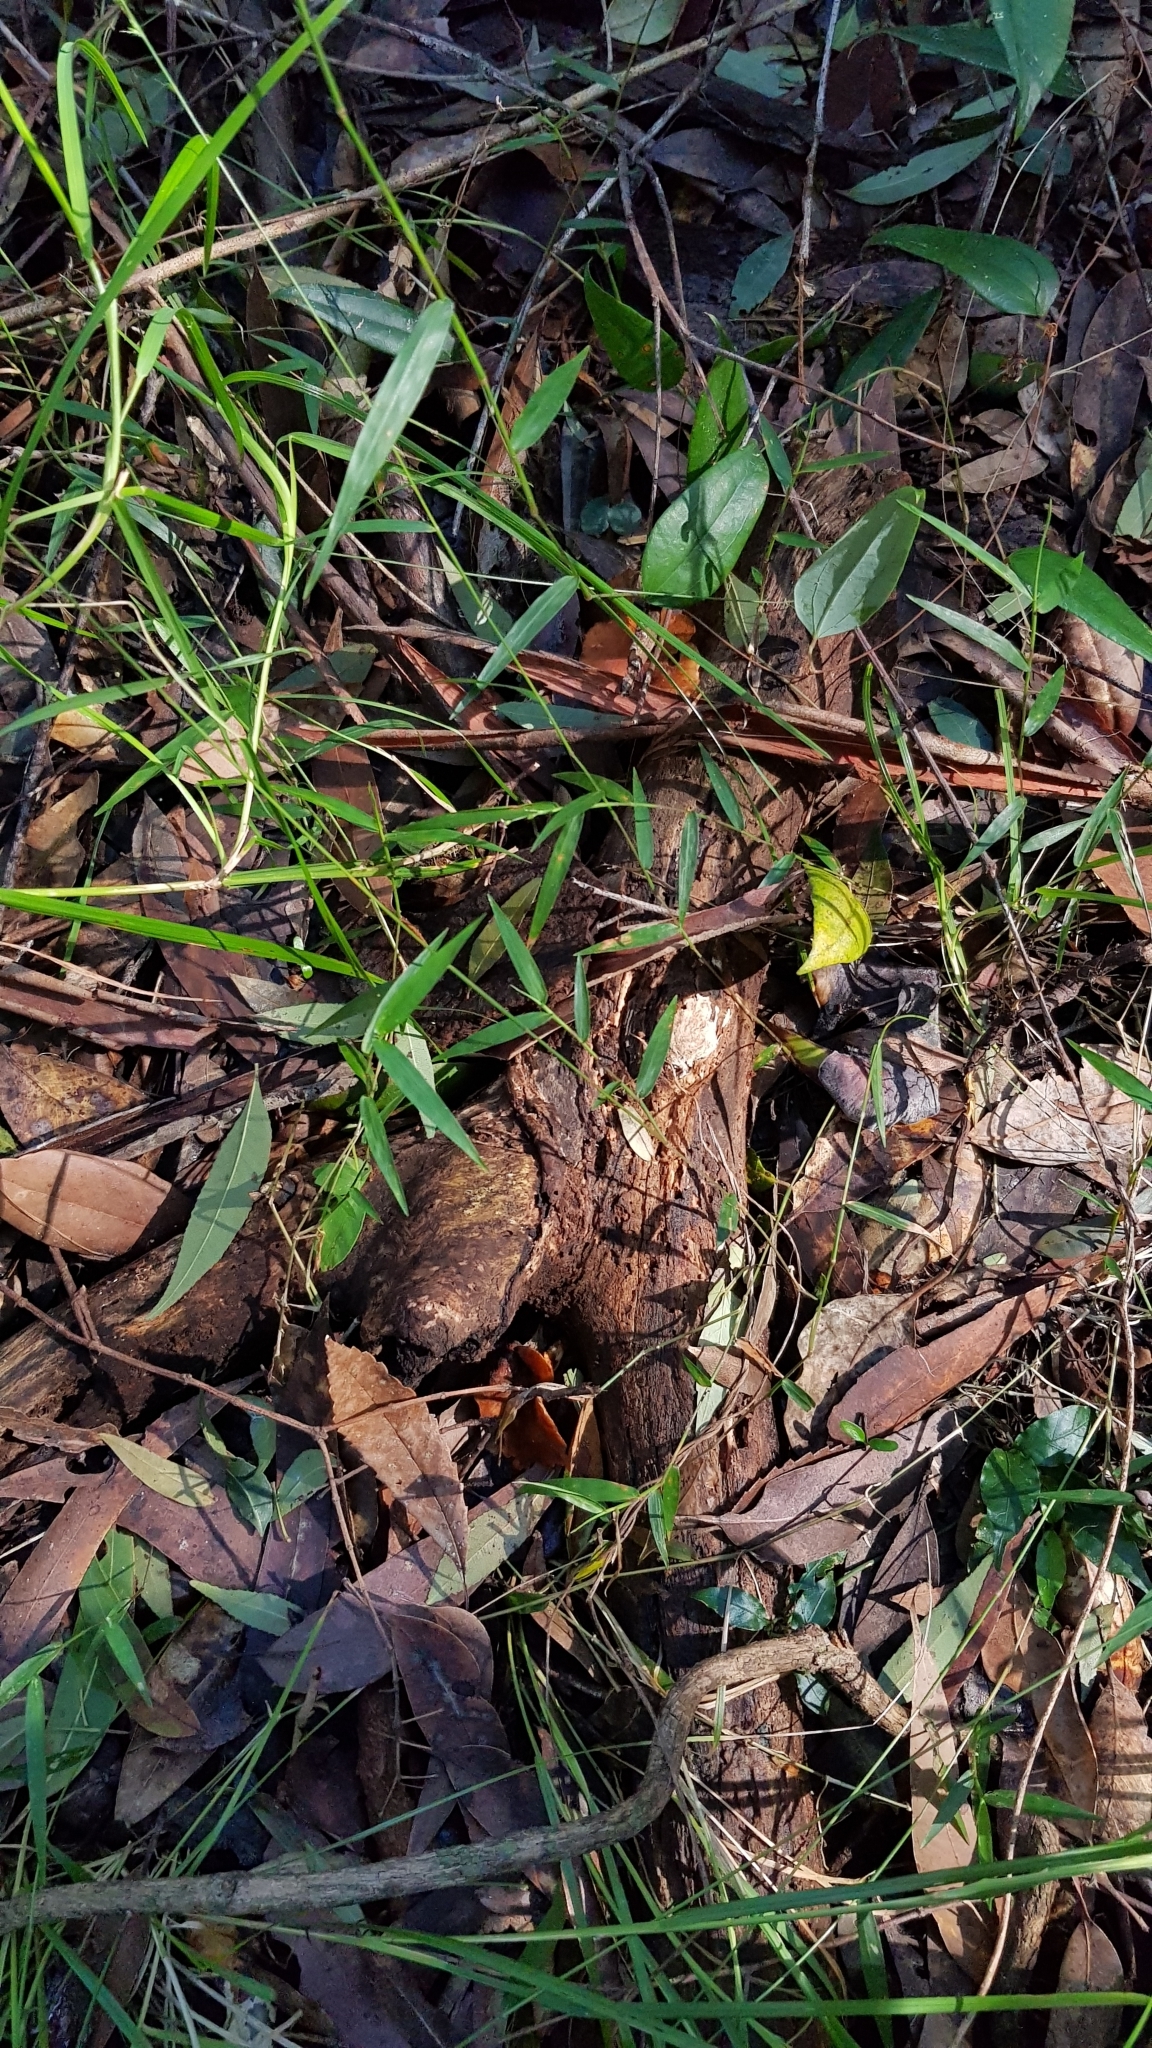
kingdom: Fungi
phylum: Basidiomycota
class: Agaricomycetes
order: Polyporales
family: Polyporaceae
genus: Picipes
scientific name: Picipes melanopus
